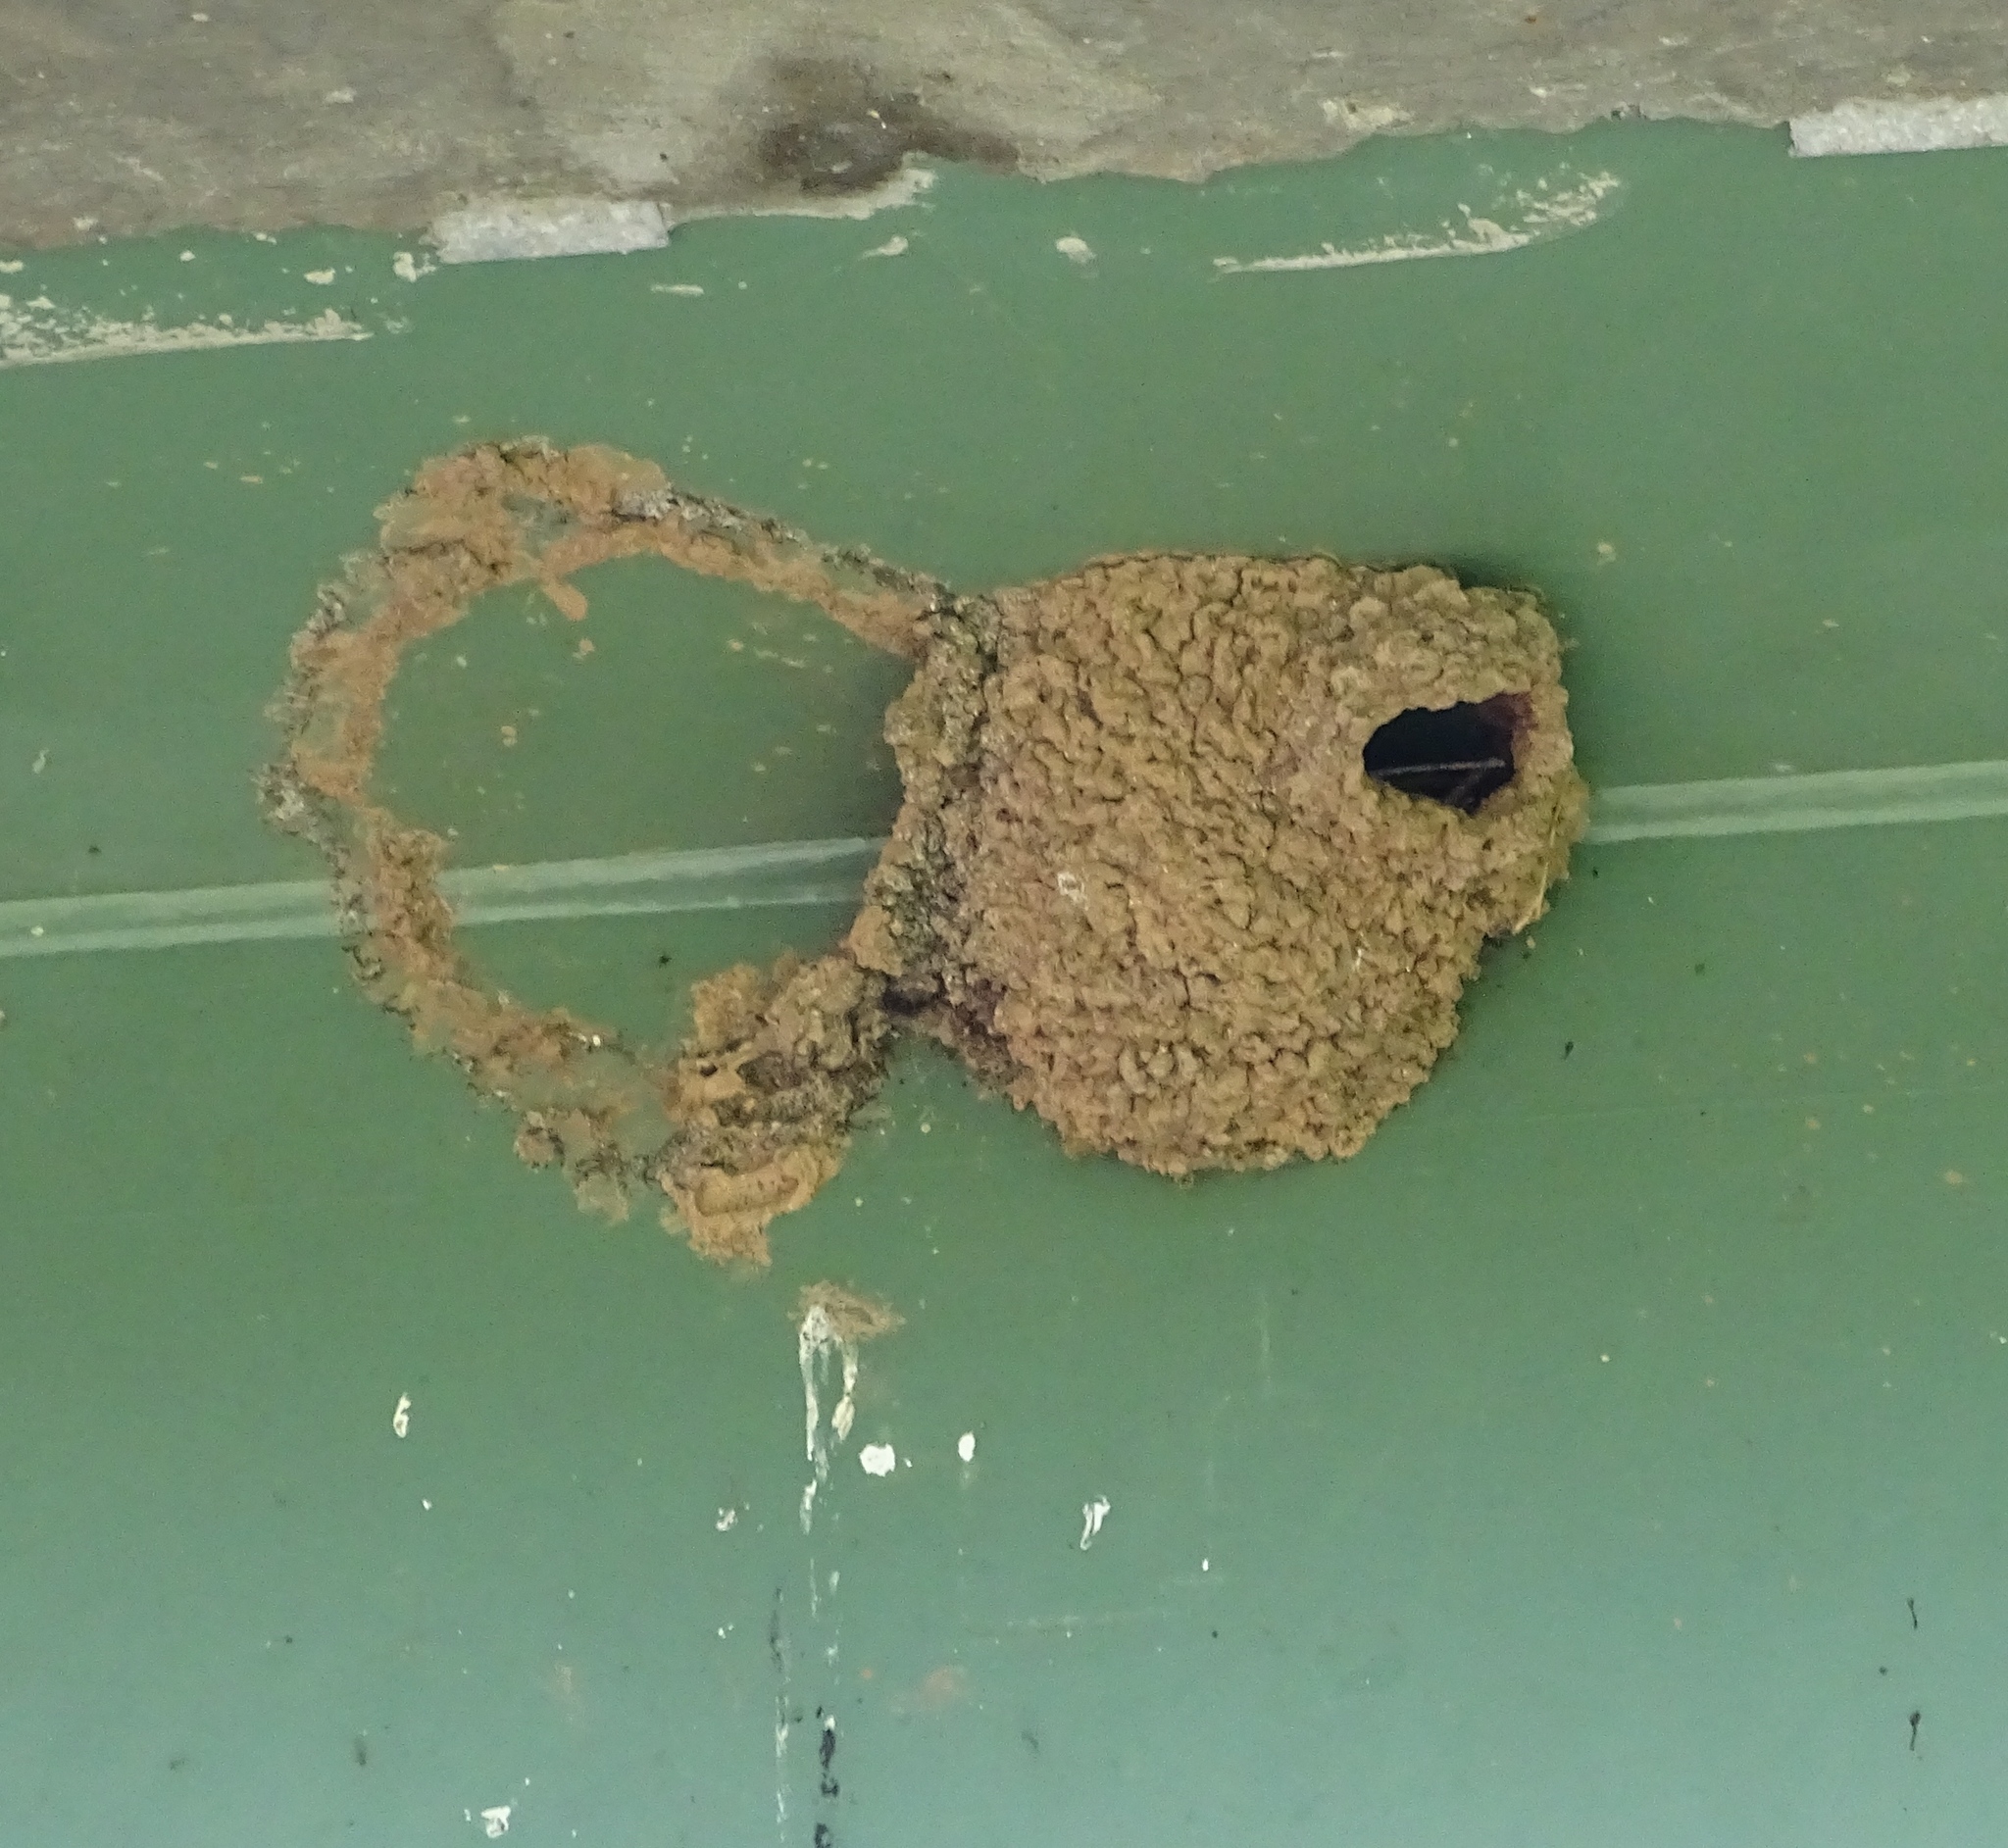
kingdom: Animalia
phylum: Chordata
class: Aves
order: Passeriformes
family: Hirundinidae
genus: Petrochelidon
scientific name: Petrochelidon pyrrhonota
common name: American cliff swallow
